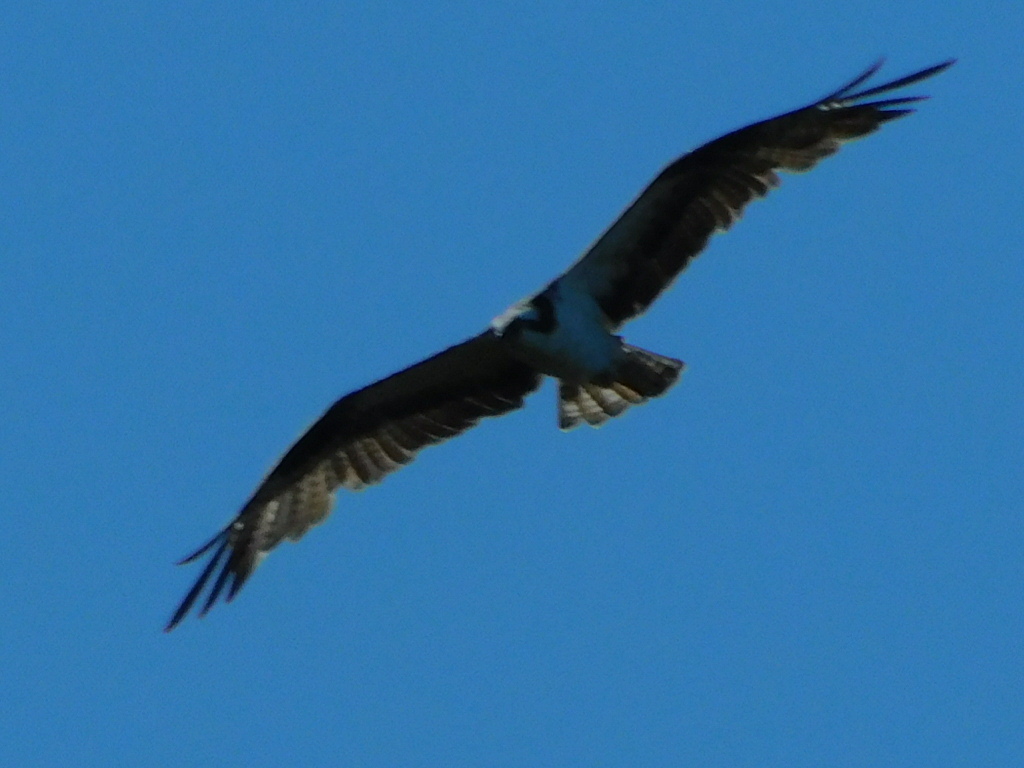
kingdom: Animalia
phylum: Chordata
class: Aves
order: Accipitriformes
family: Pandionidae
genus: Pandion
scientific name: Pandion haliaetus
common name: Osprey
